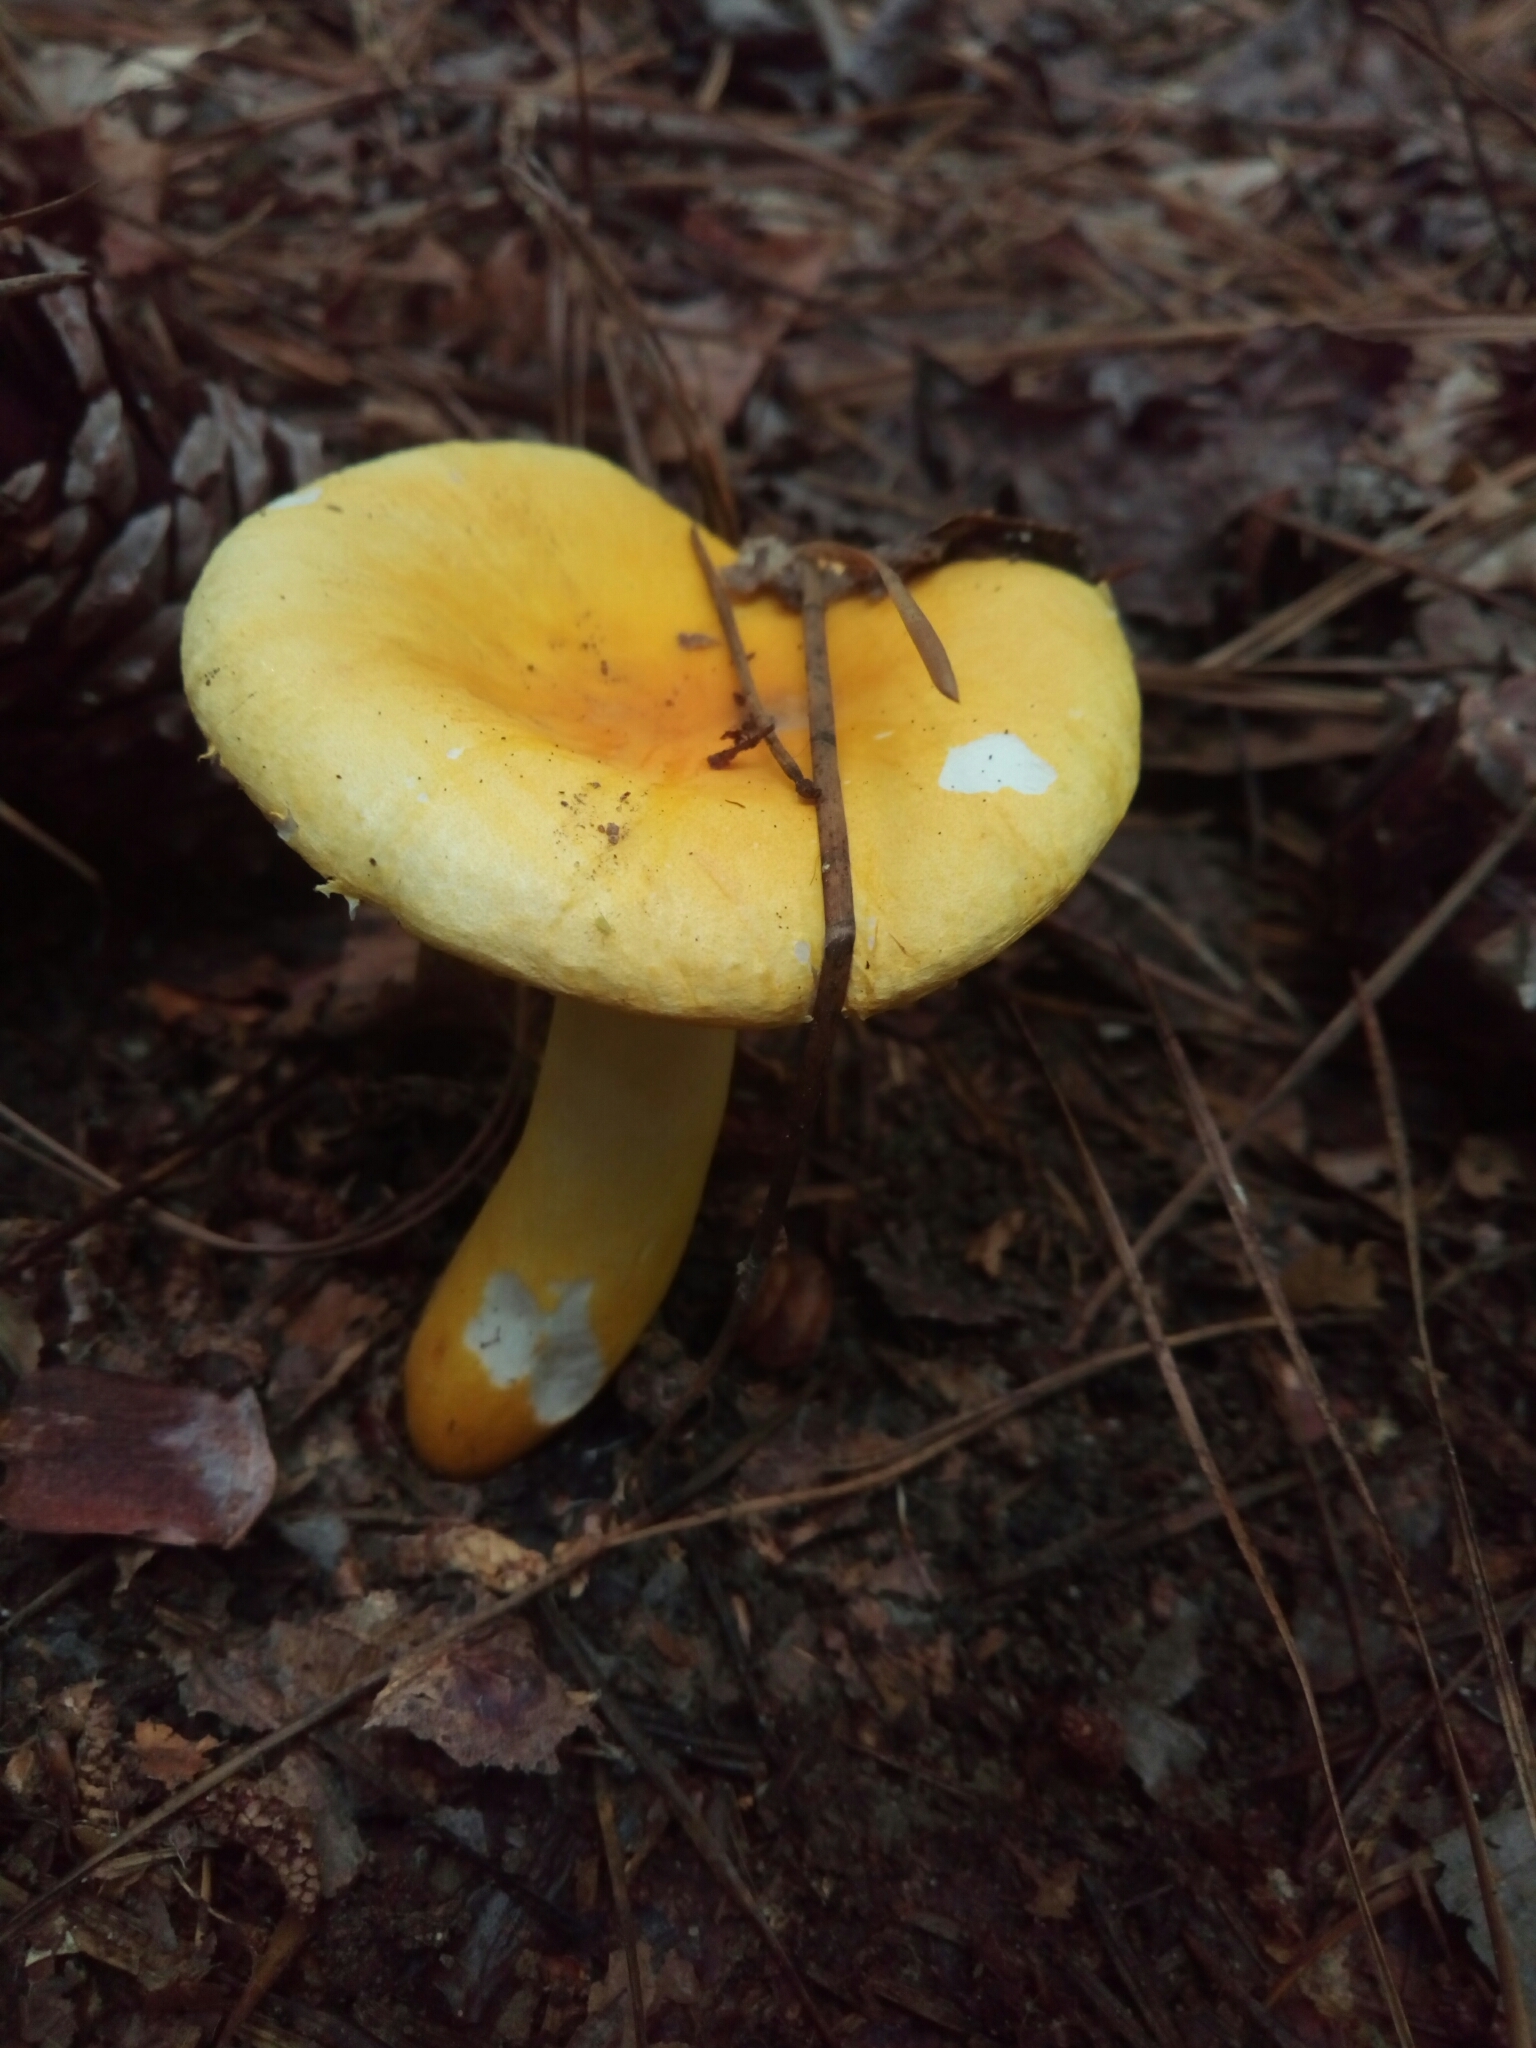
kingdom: Fungi
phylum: Basidiomycota
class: Agaricomycetes
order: Russulales
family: Russulaceae
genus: Russula
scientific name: Russula flavida
